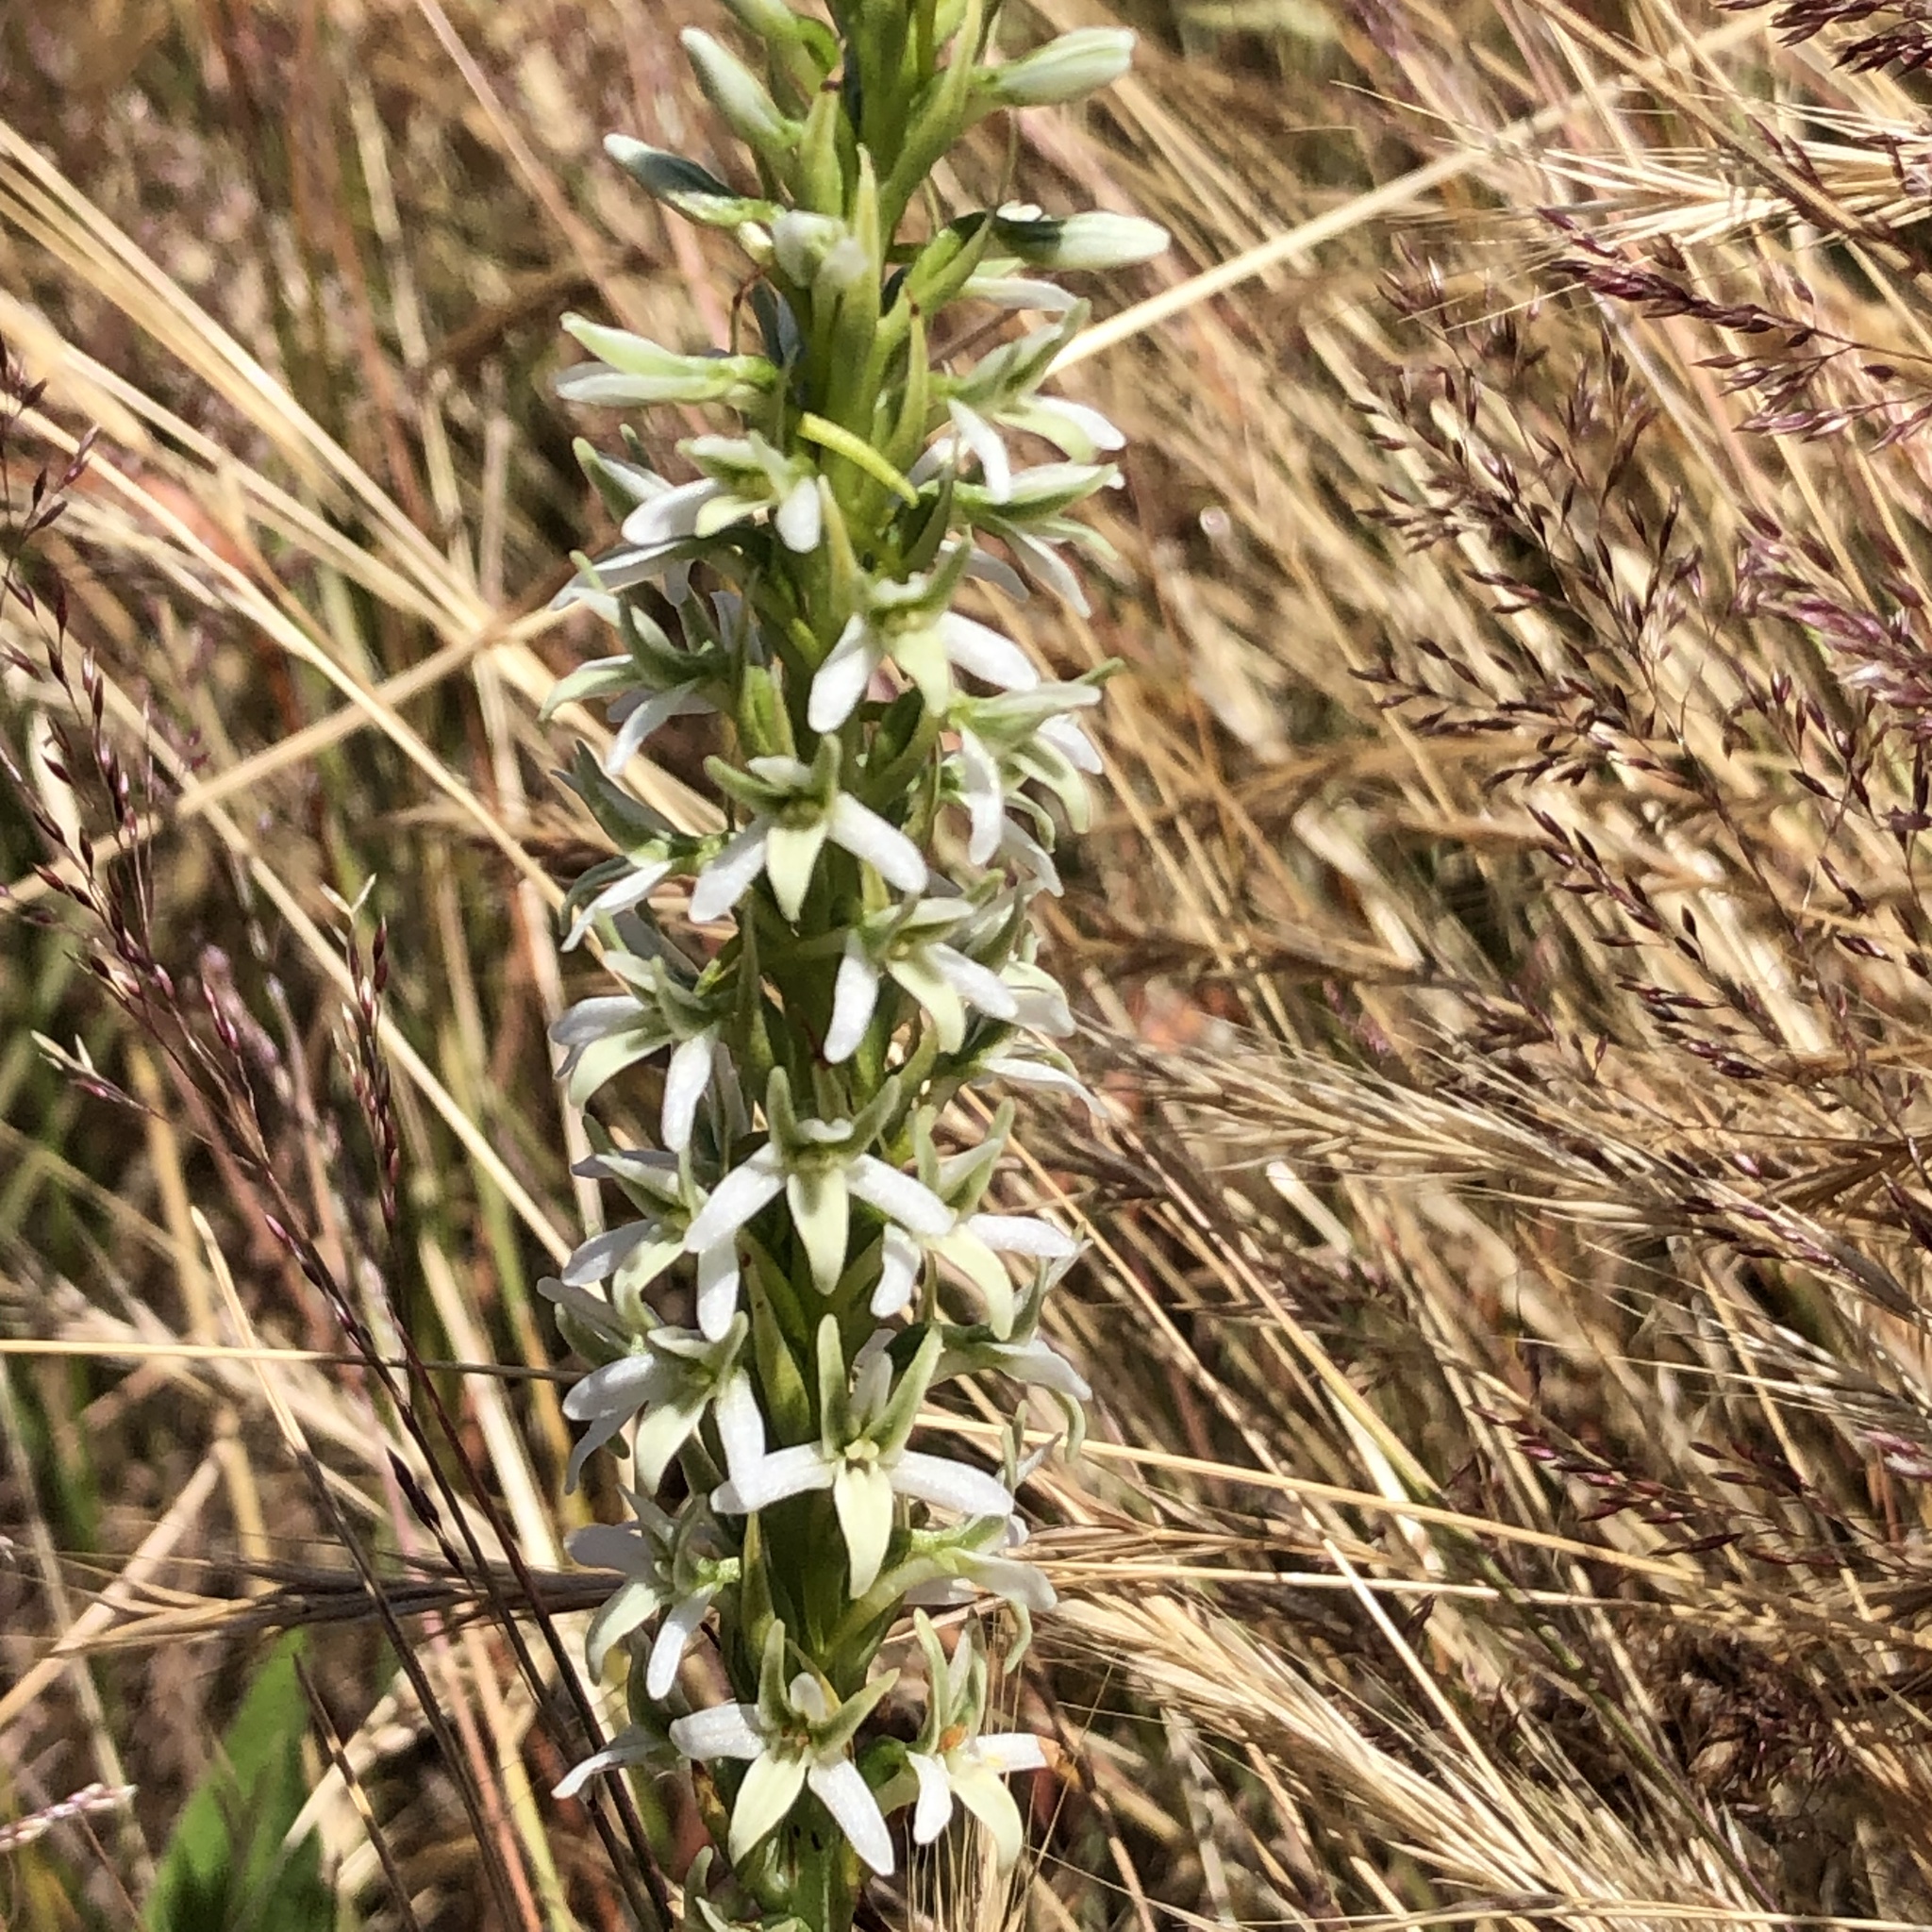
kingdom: Plantae
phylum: Tracheophyta
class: Liliopsida
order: Asparagales
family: Orchidaceae
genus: Platanthera
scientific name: Platanthera elegans
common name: Coast piperia
